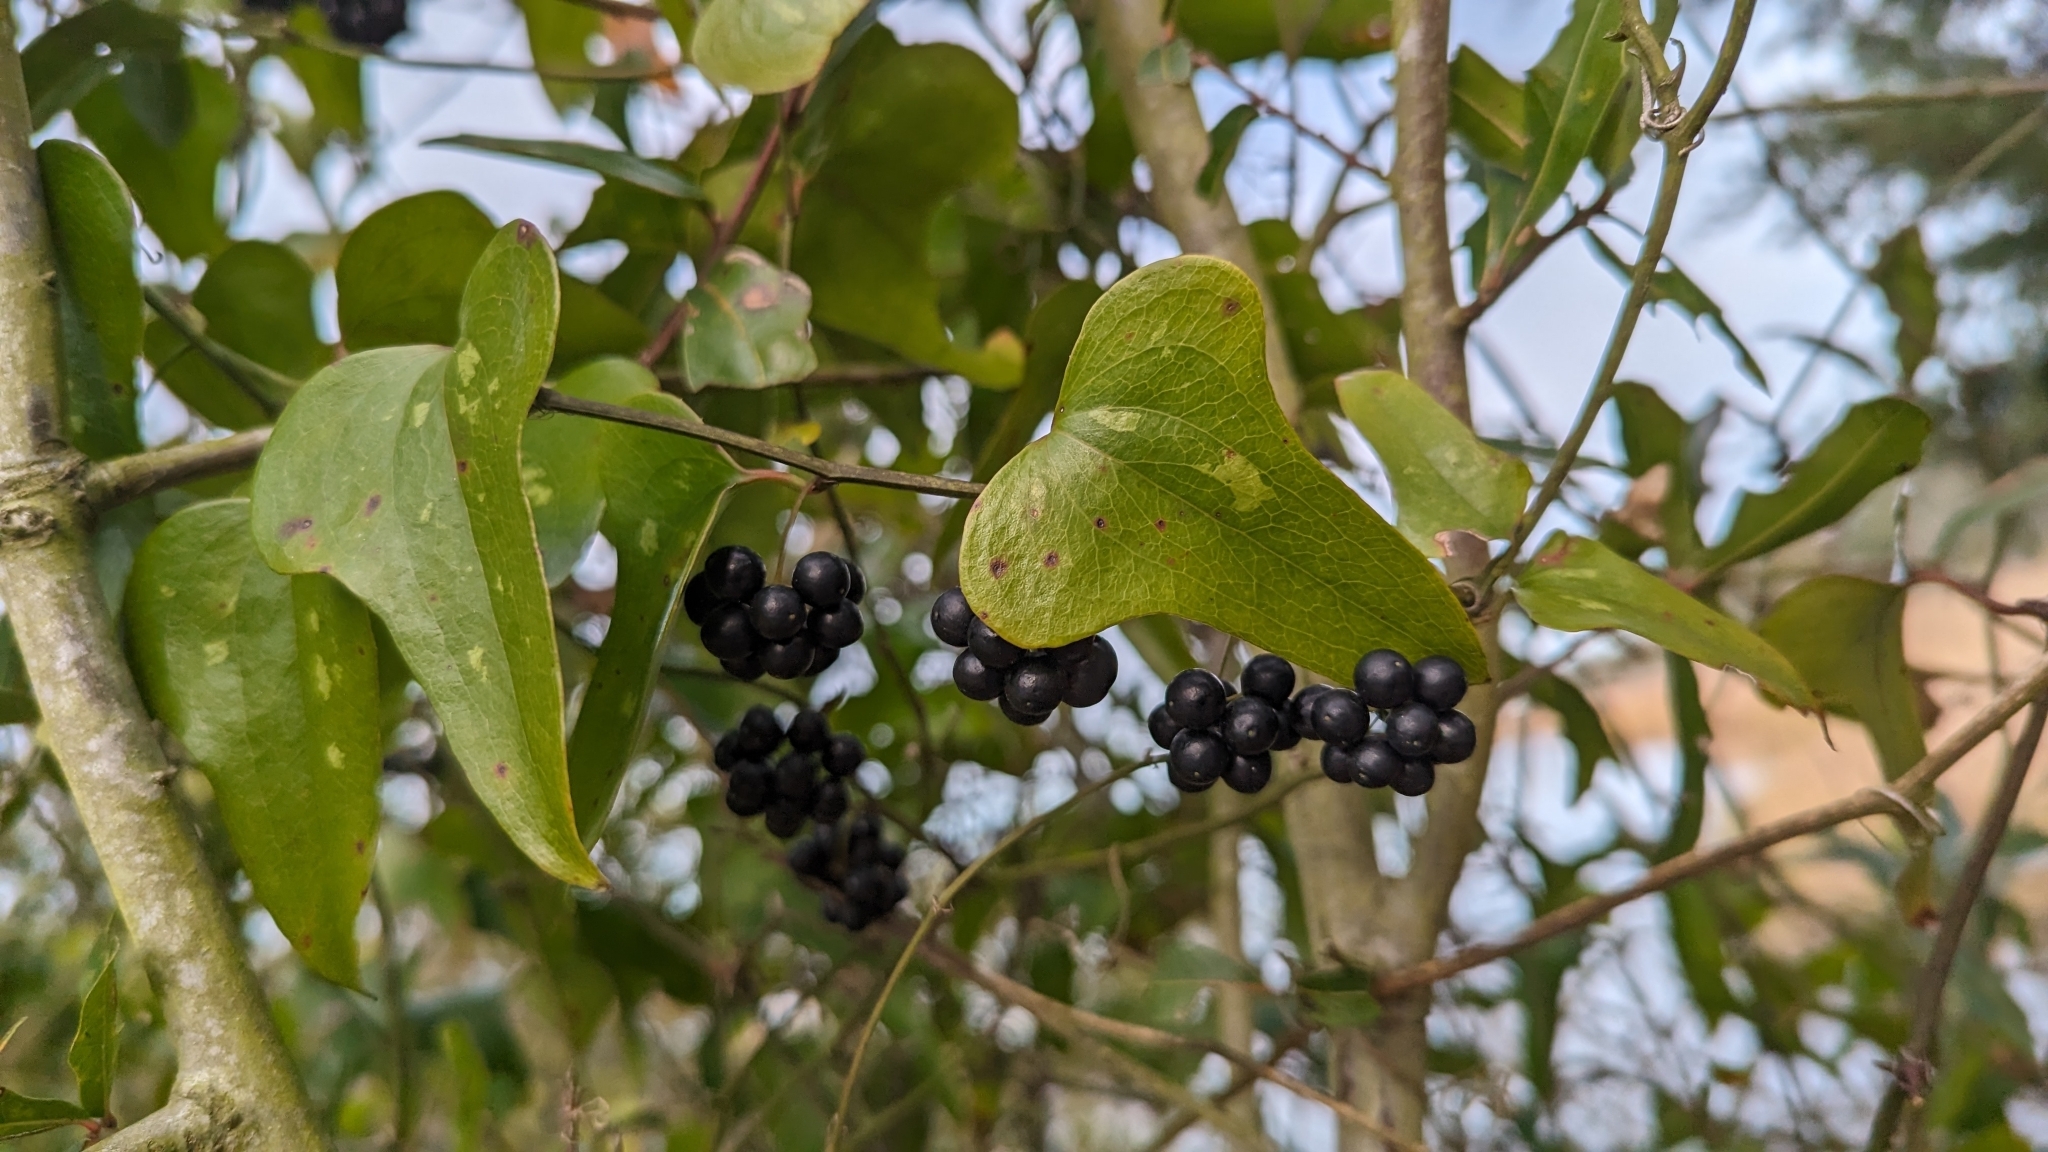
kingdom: Plantae
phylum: Tracheophyta
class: Liliopsida
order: Liliales
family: Smilacaceae
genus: Smilax
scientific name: Smilax bona-nox
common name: Catbrier
